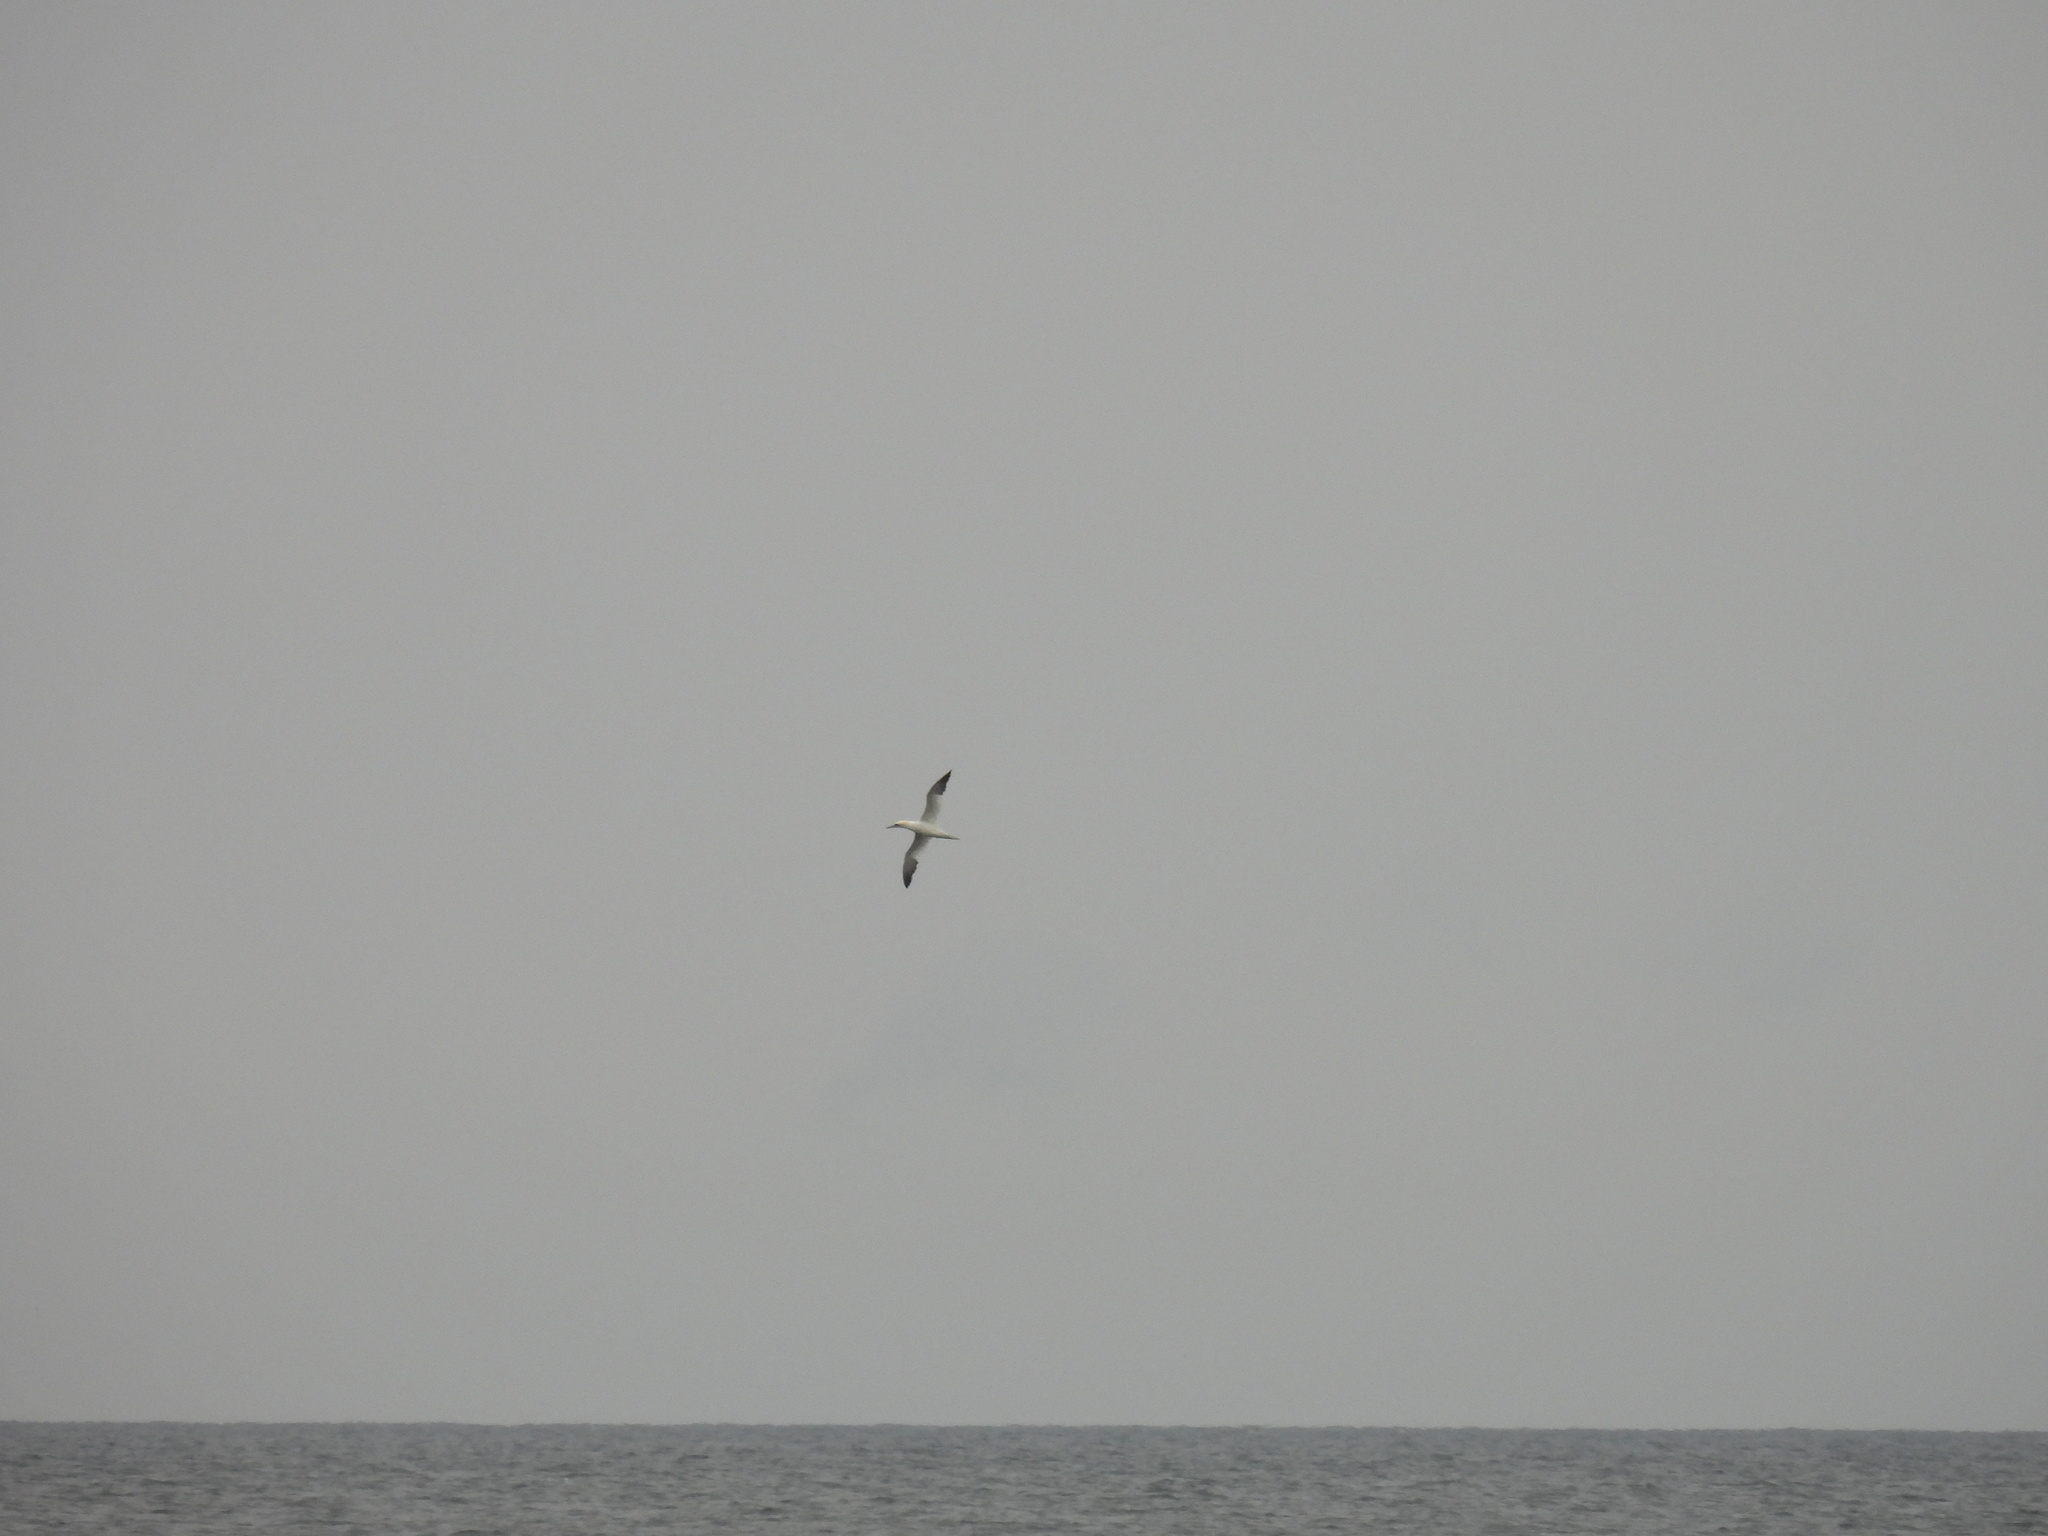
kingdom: Animalia
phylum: Chordata
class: Aves
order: Suliformes
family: Sulidae
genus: Morus
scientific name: Morus bassanus
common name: Northern gannet
